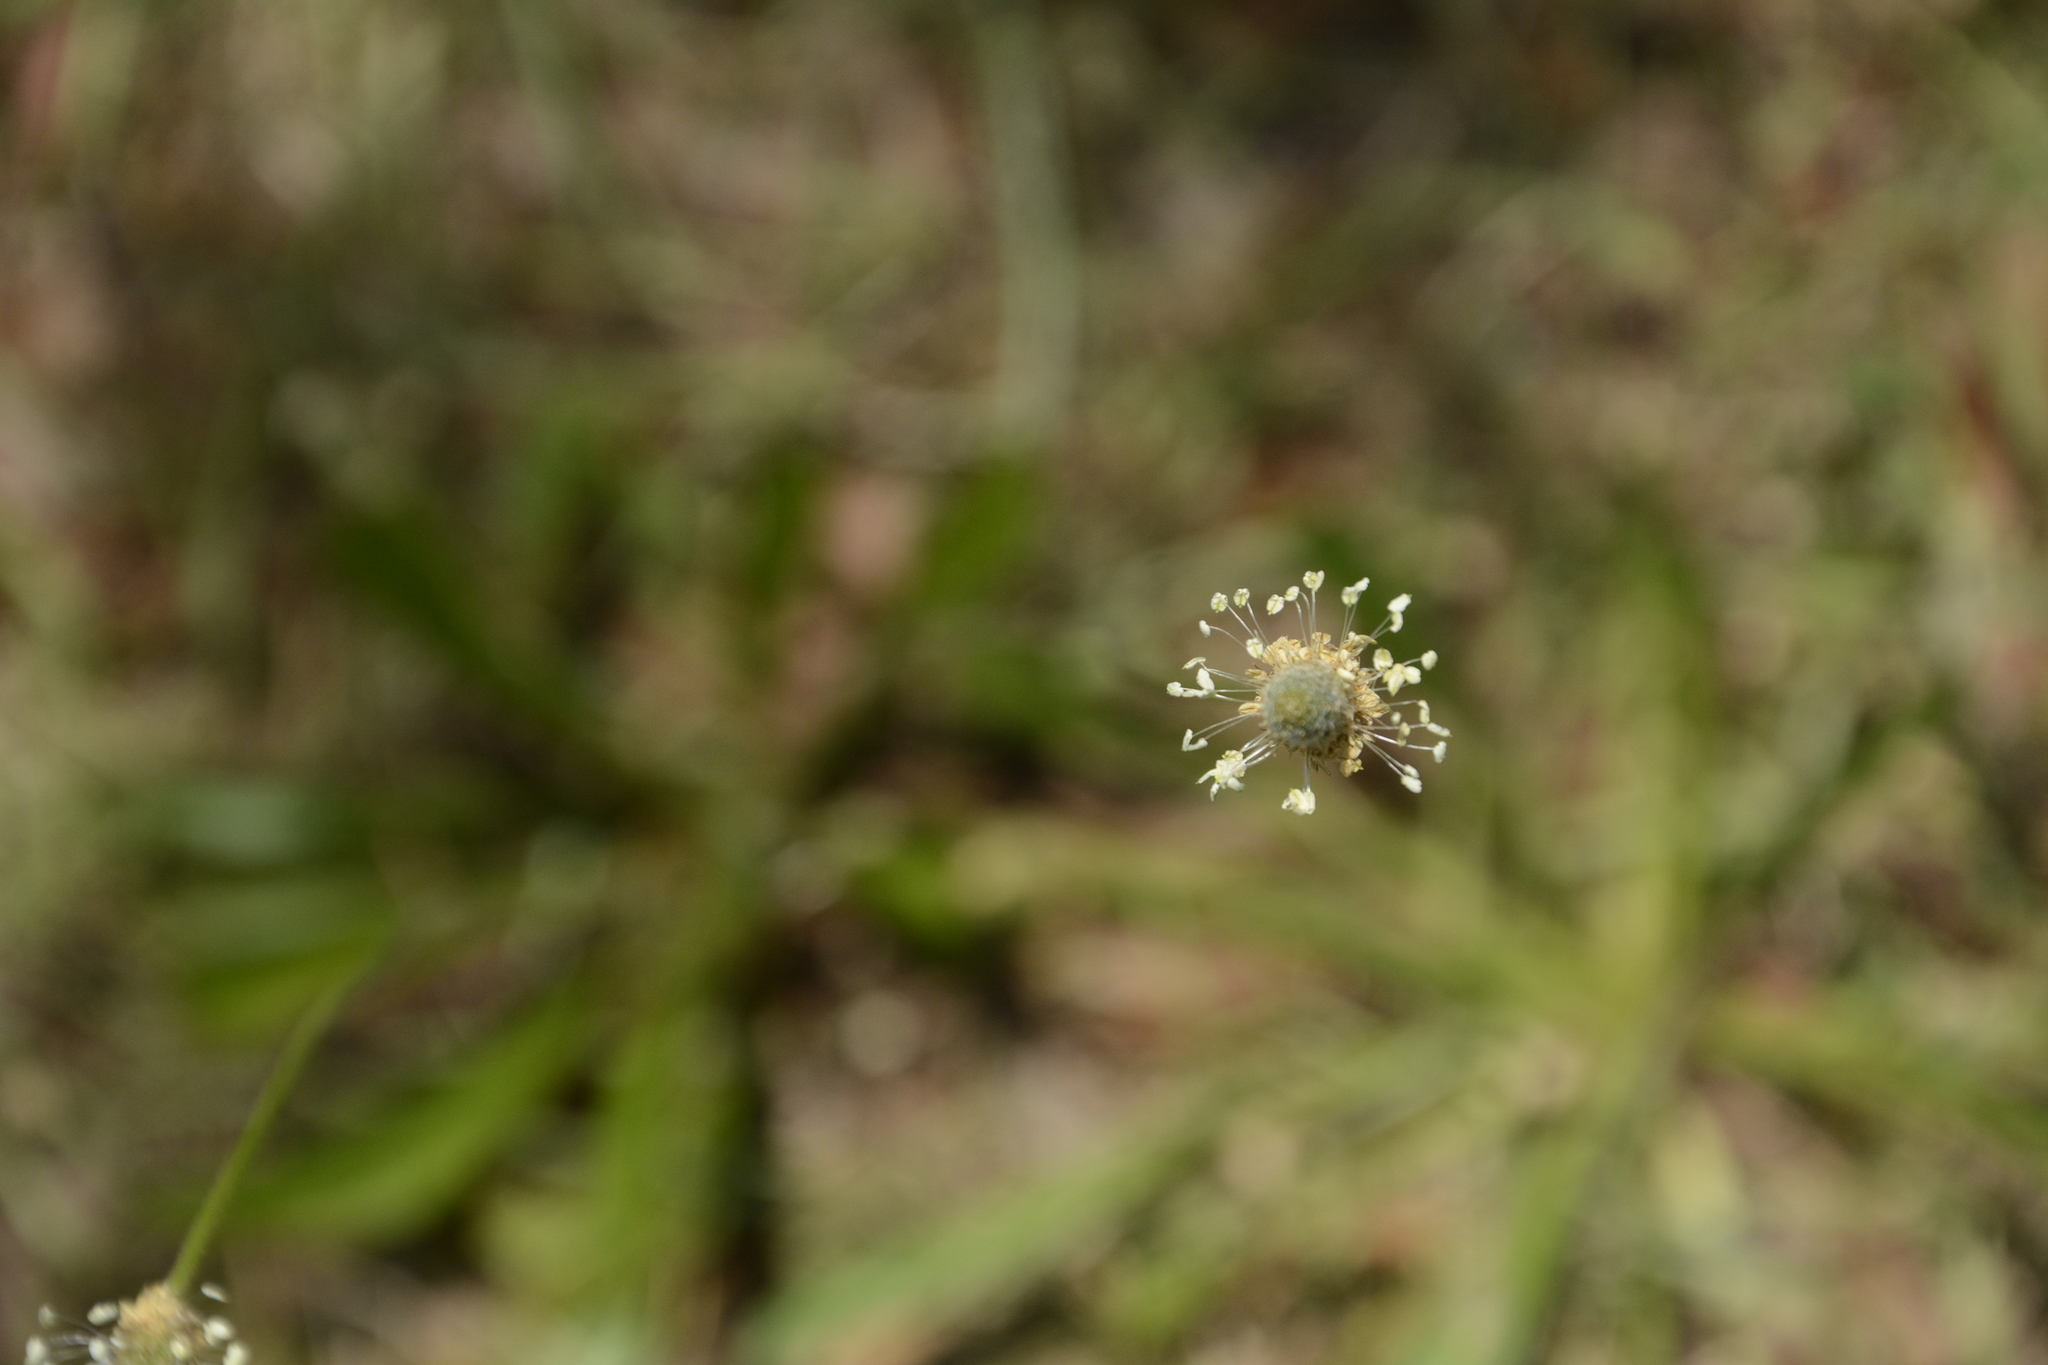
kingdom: Plantae
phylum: Tracheophyta
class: Magnoliopsida
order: Lamiales
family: Plantaginaceae
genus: Plantago
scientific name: Plantago lanceolata
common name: Ribwort plantain
